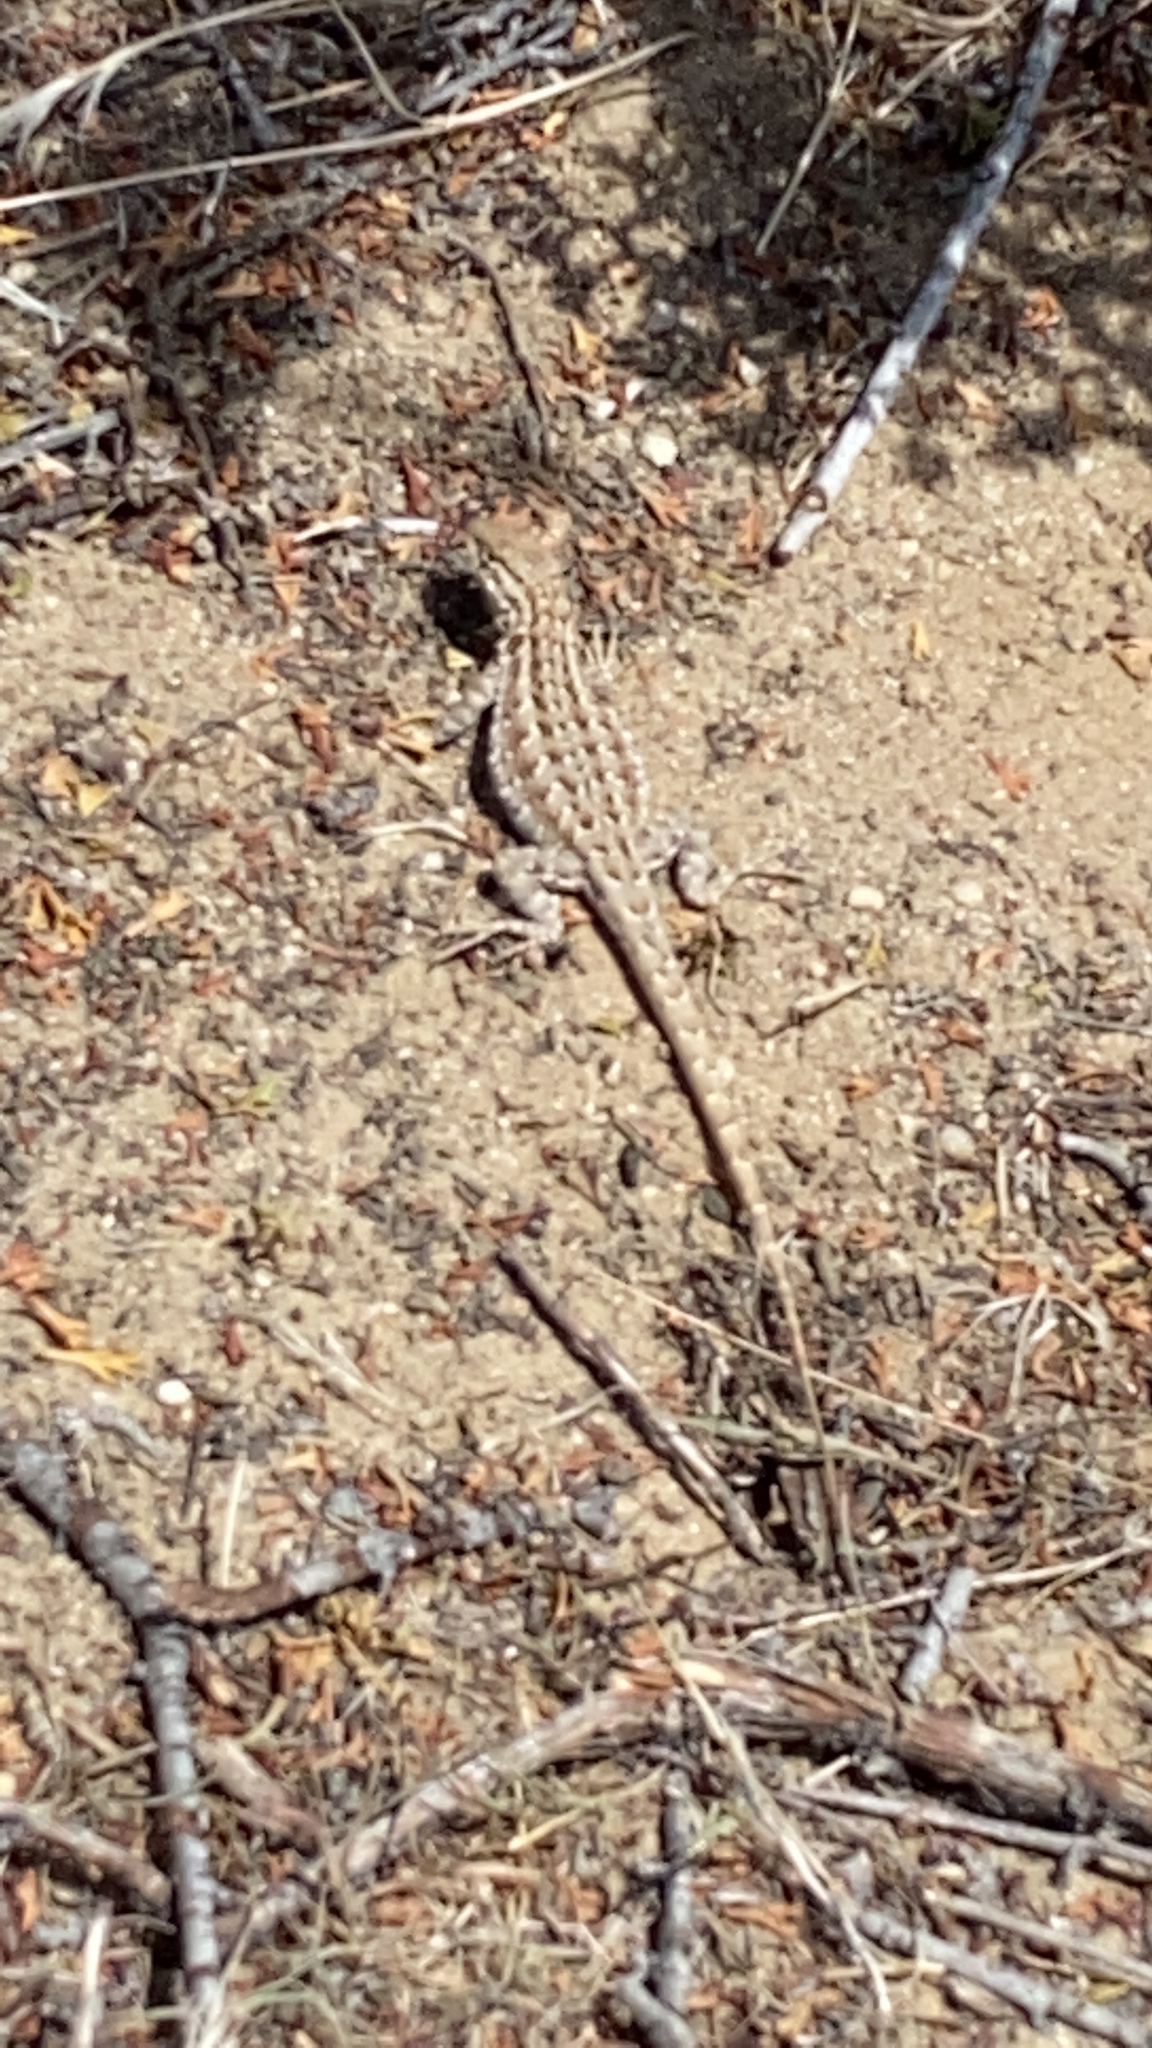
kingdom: Animalia
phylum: Chordata
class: Squamata
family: Phrynosomatidae
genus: Uta
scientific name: Uta stansburiana
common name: Side-blotched lizard
